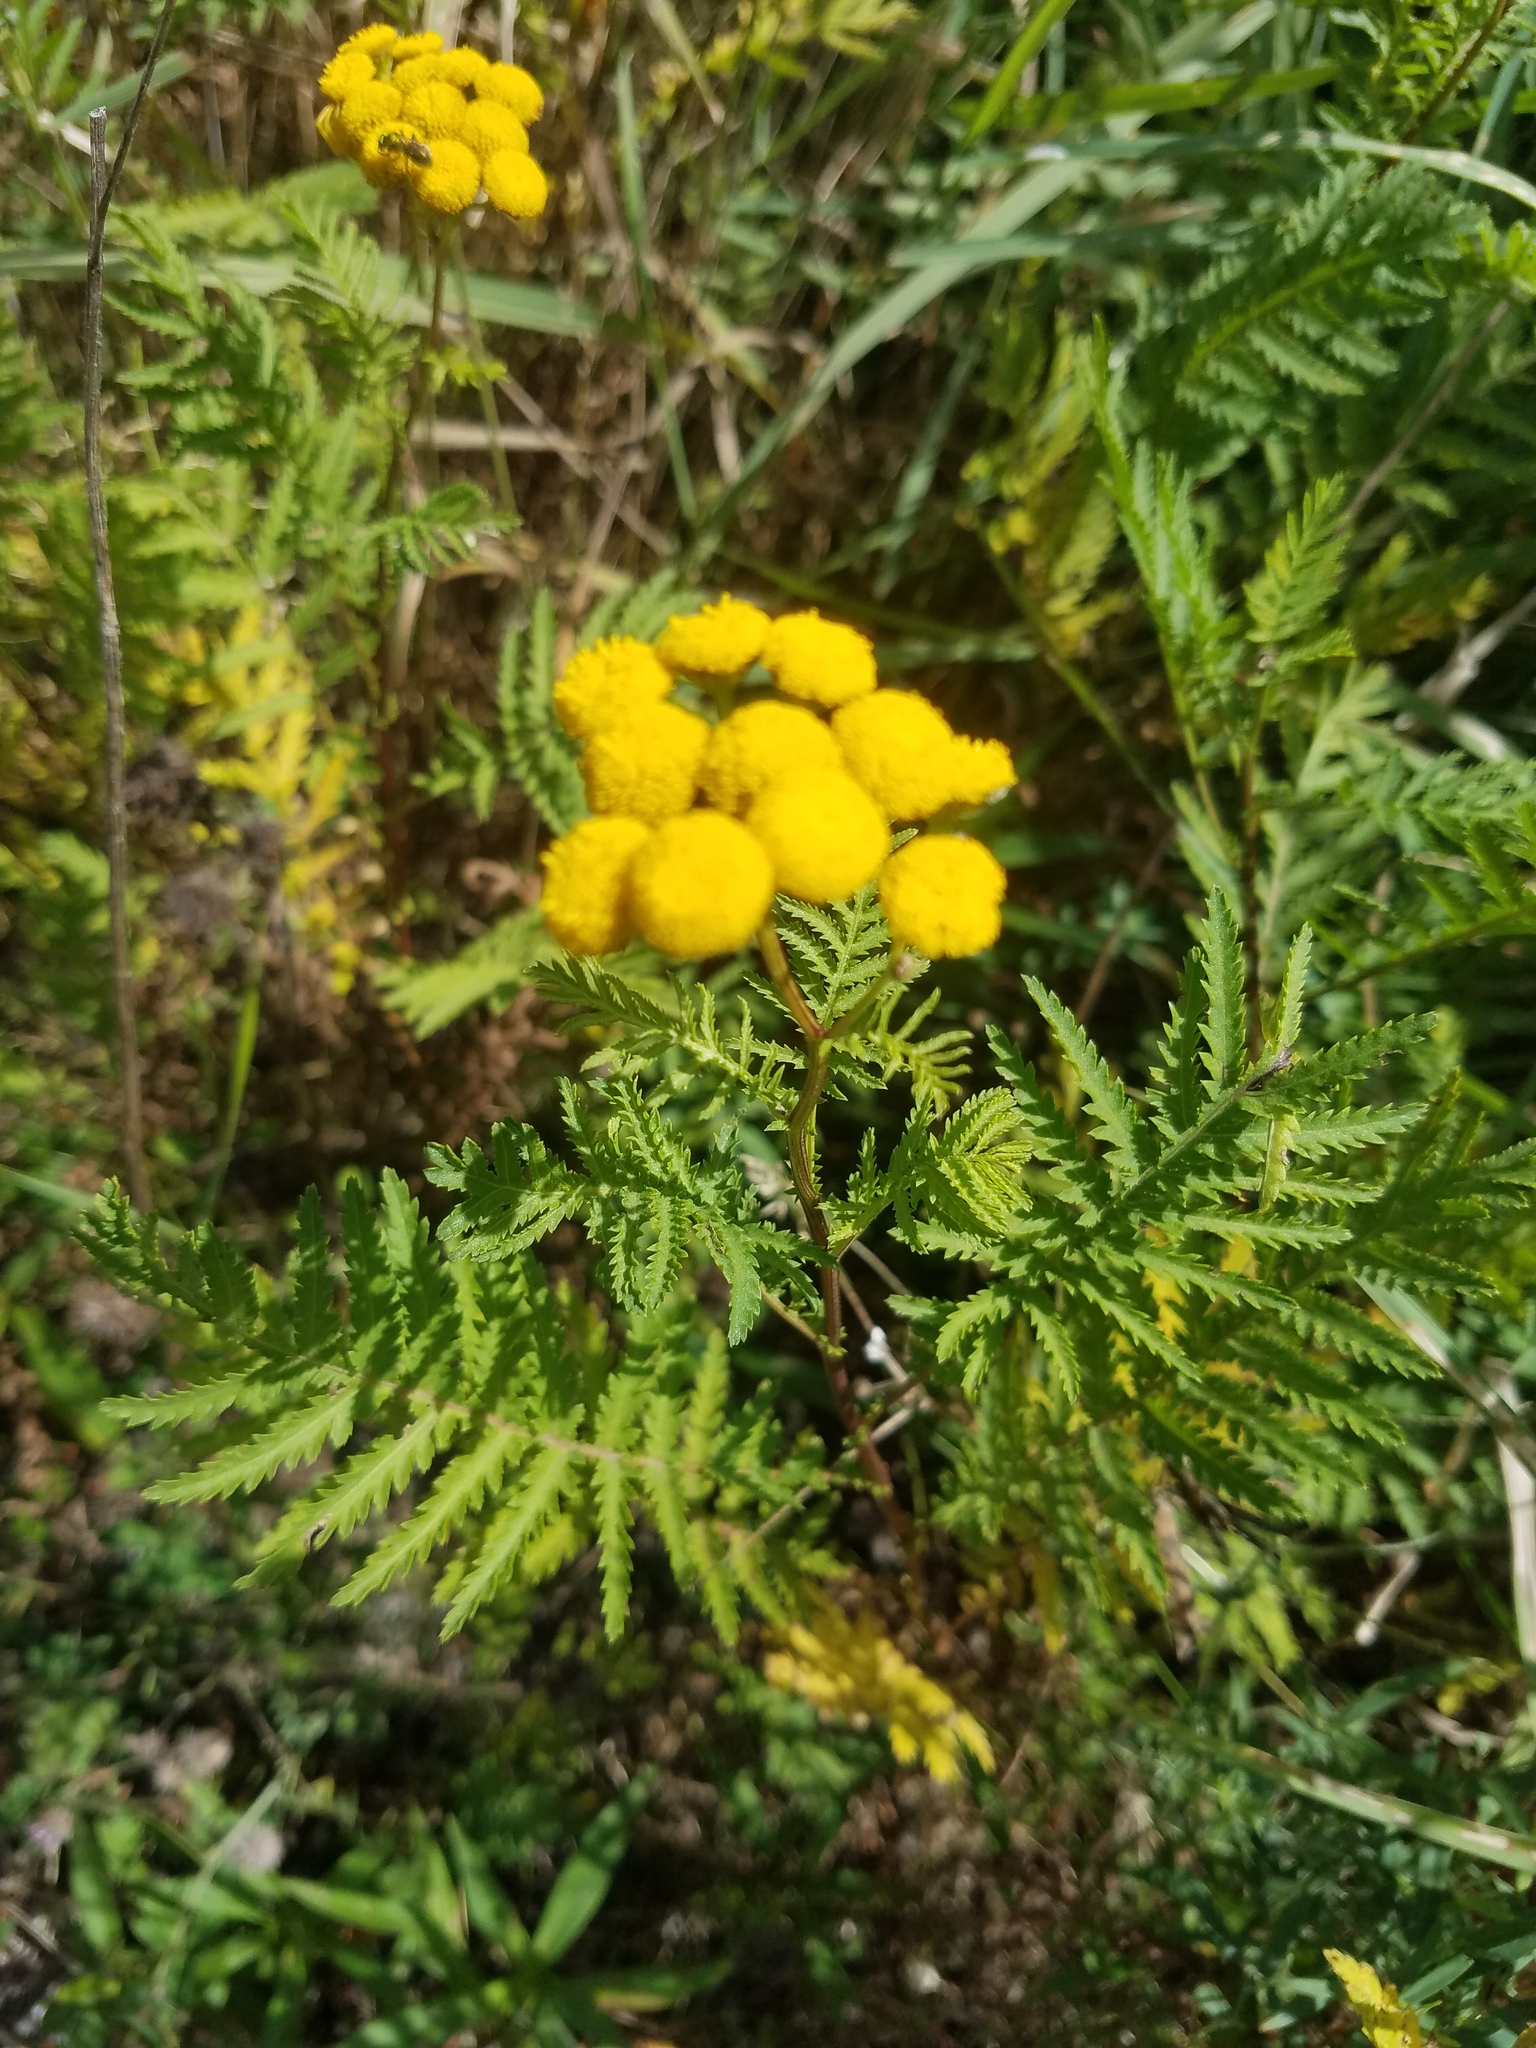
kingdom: Plantae
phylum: Tracheophyta
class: Magnoliopsida
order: Asterales
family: Asteraceae
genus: Tanacetum
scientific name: Tanacetum vulgare
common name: Common tansy
